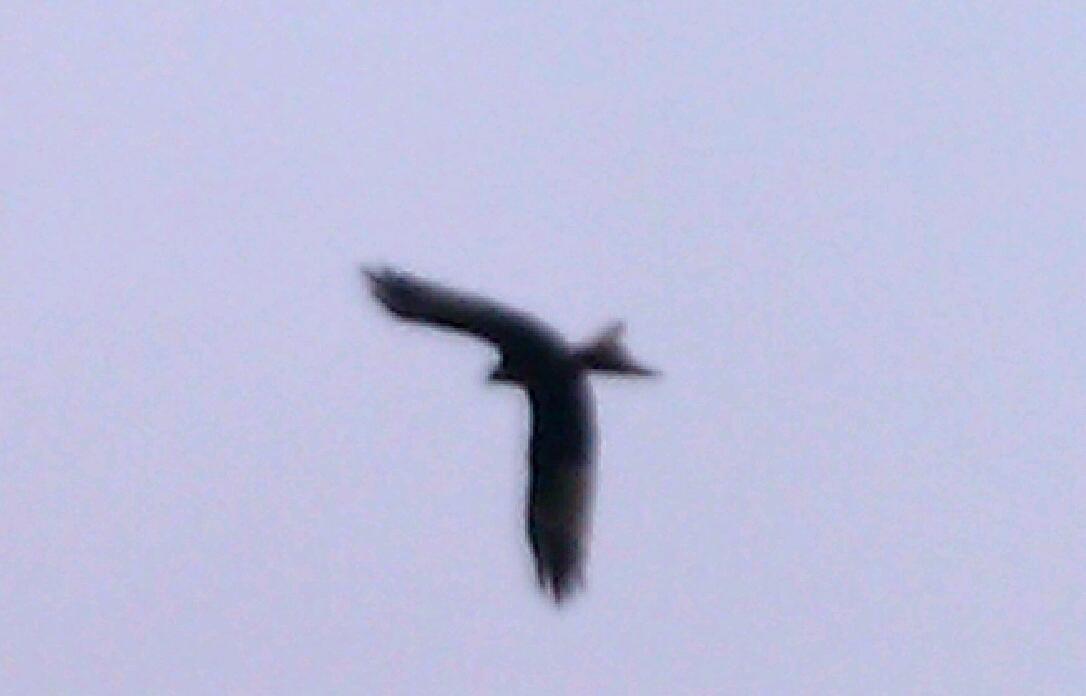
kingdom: Animalia
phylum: Chordata
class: Aves
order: Accipitriformes
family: Accipitridae
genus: Milvus
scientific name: Milvus milvus
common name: Red kite
